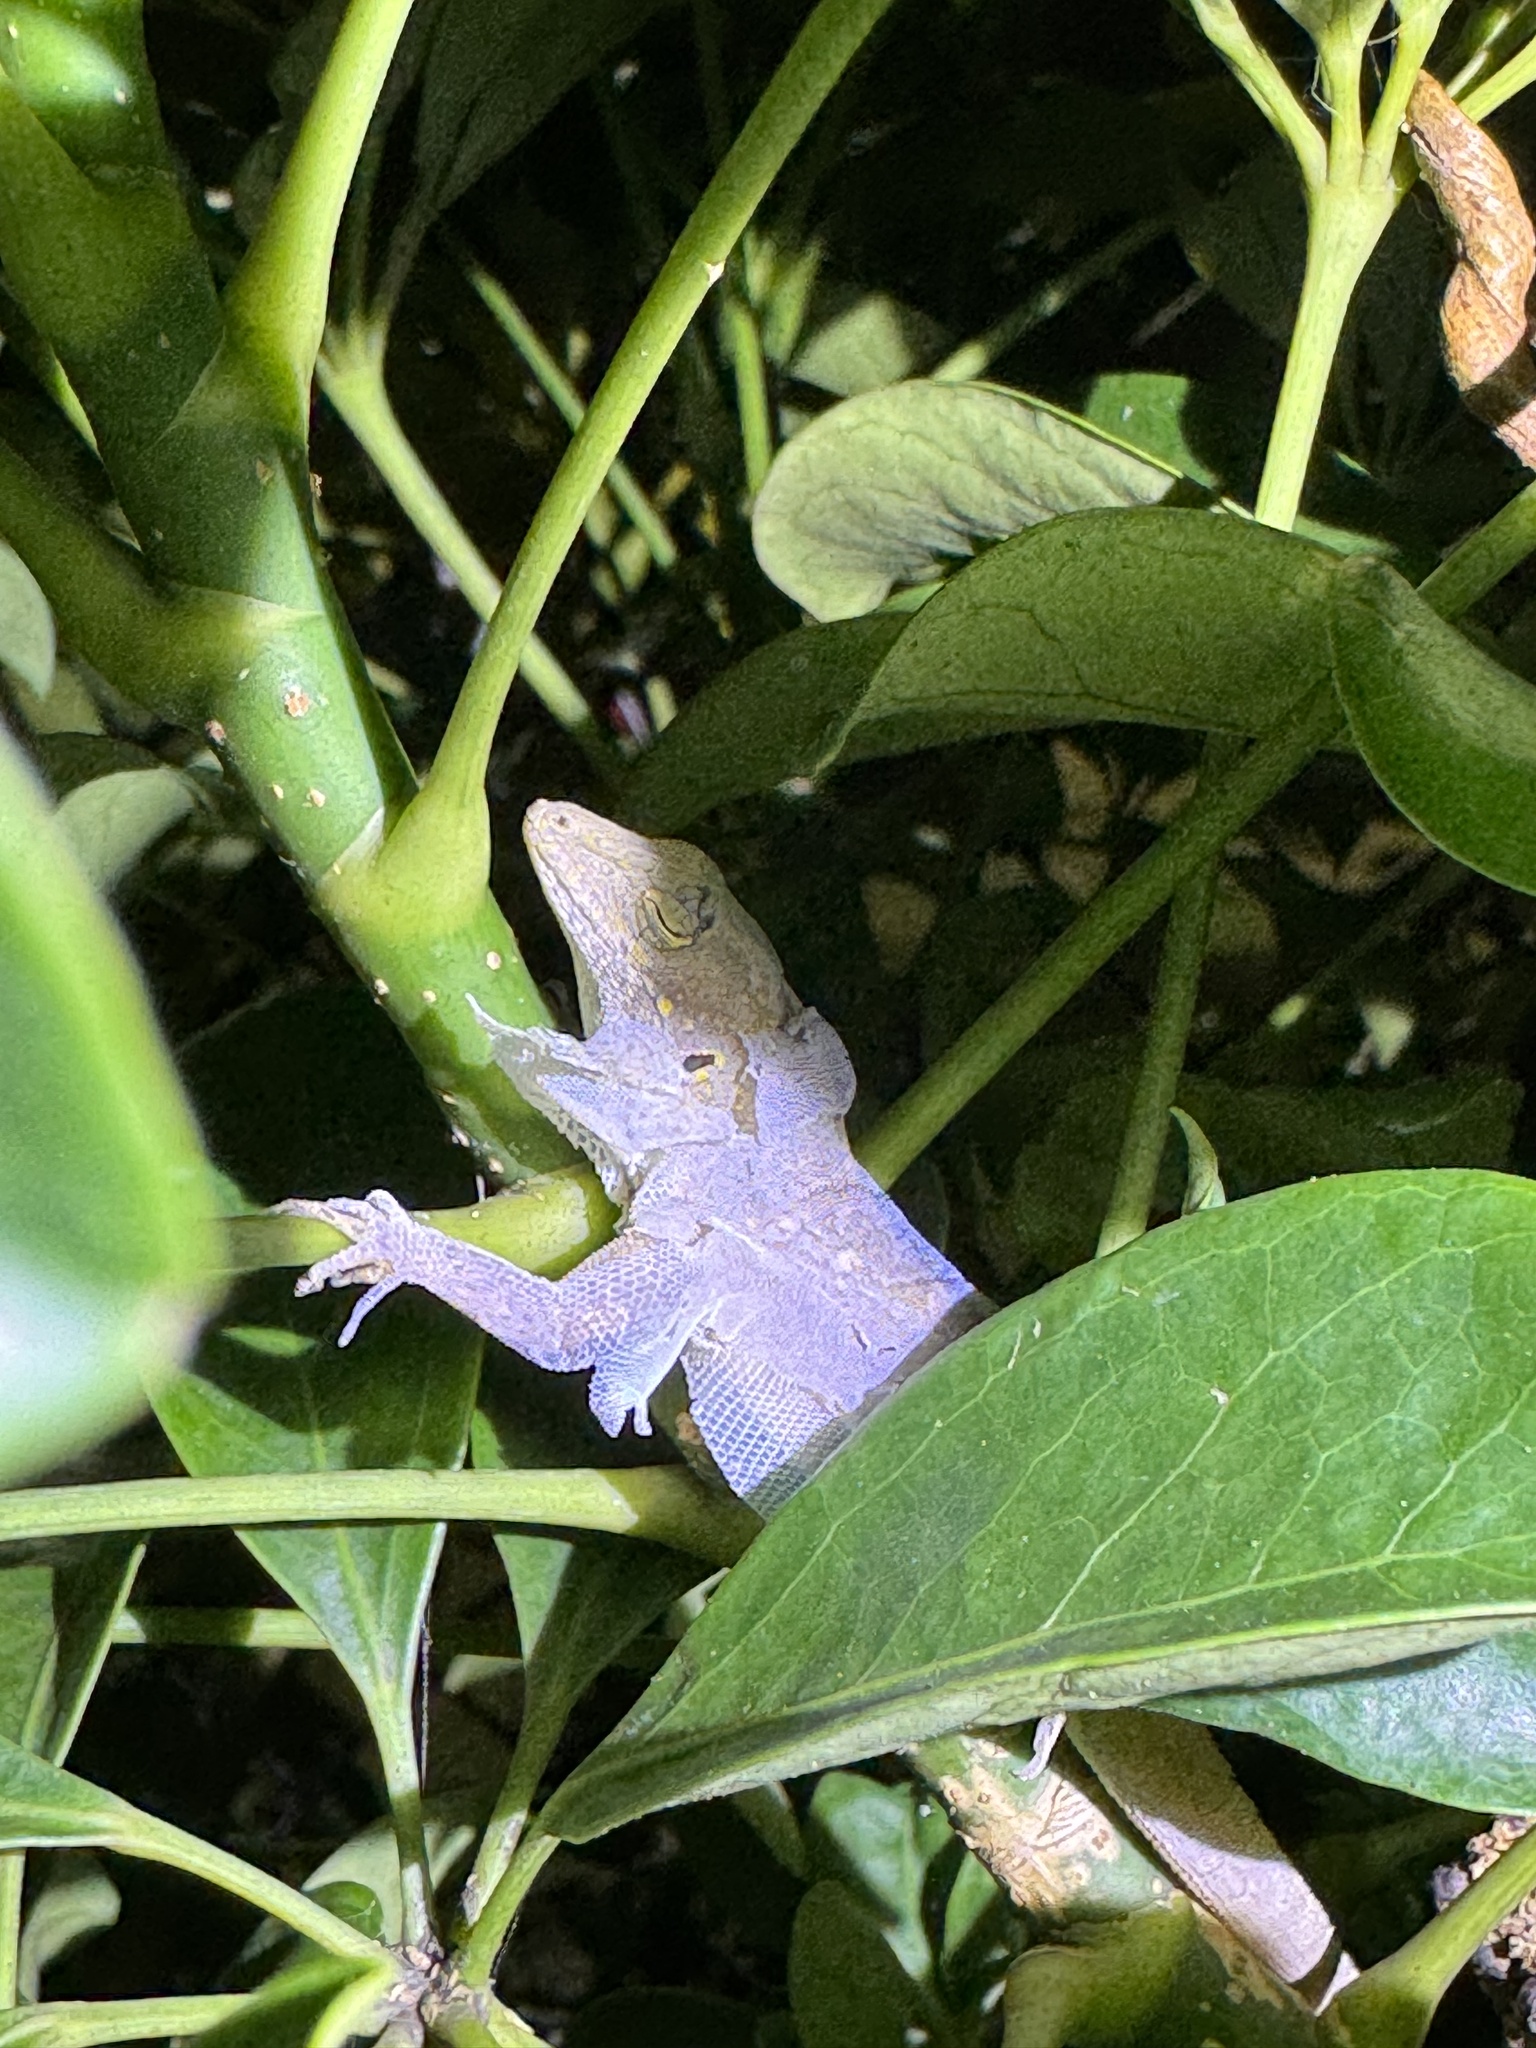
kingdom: Animalia
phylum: Chordata
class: Squamata
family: Dactyloidae
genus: Anolis
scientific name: Anolis sagrei
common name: Brown anole
